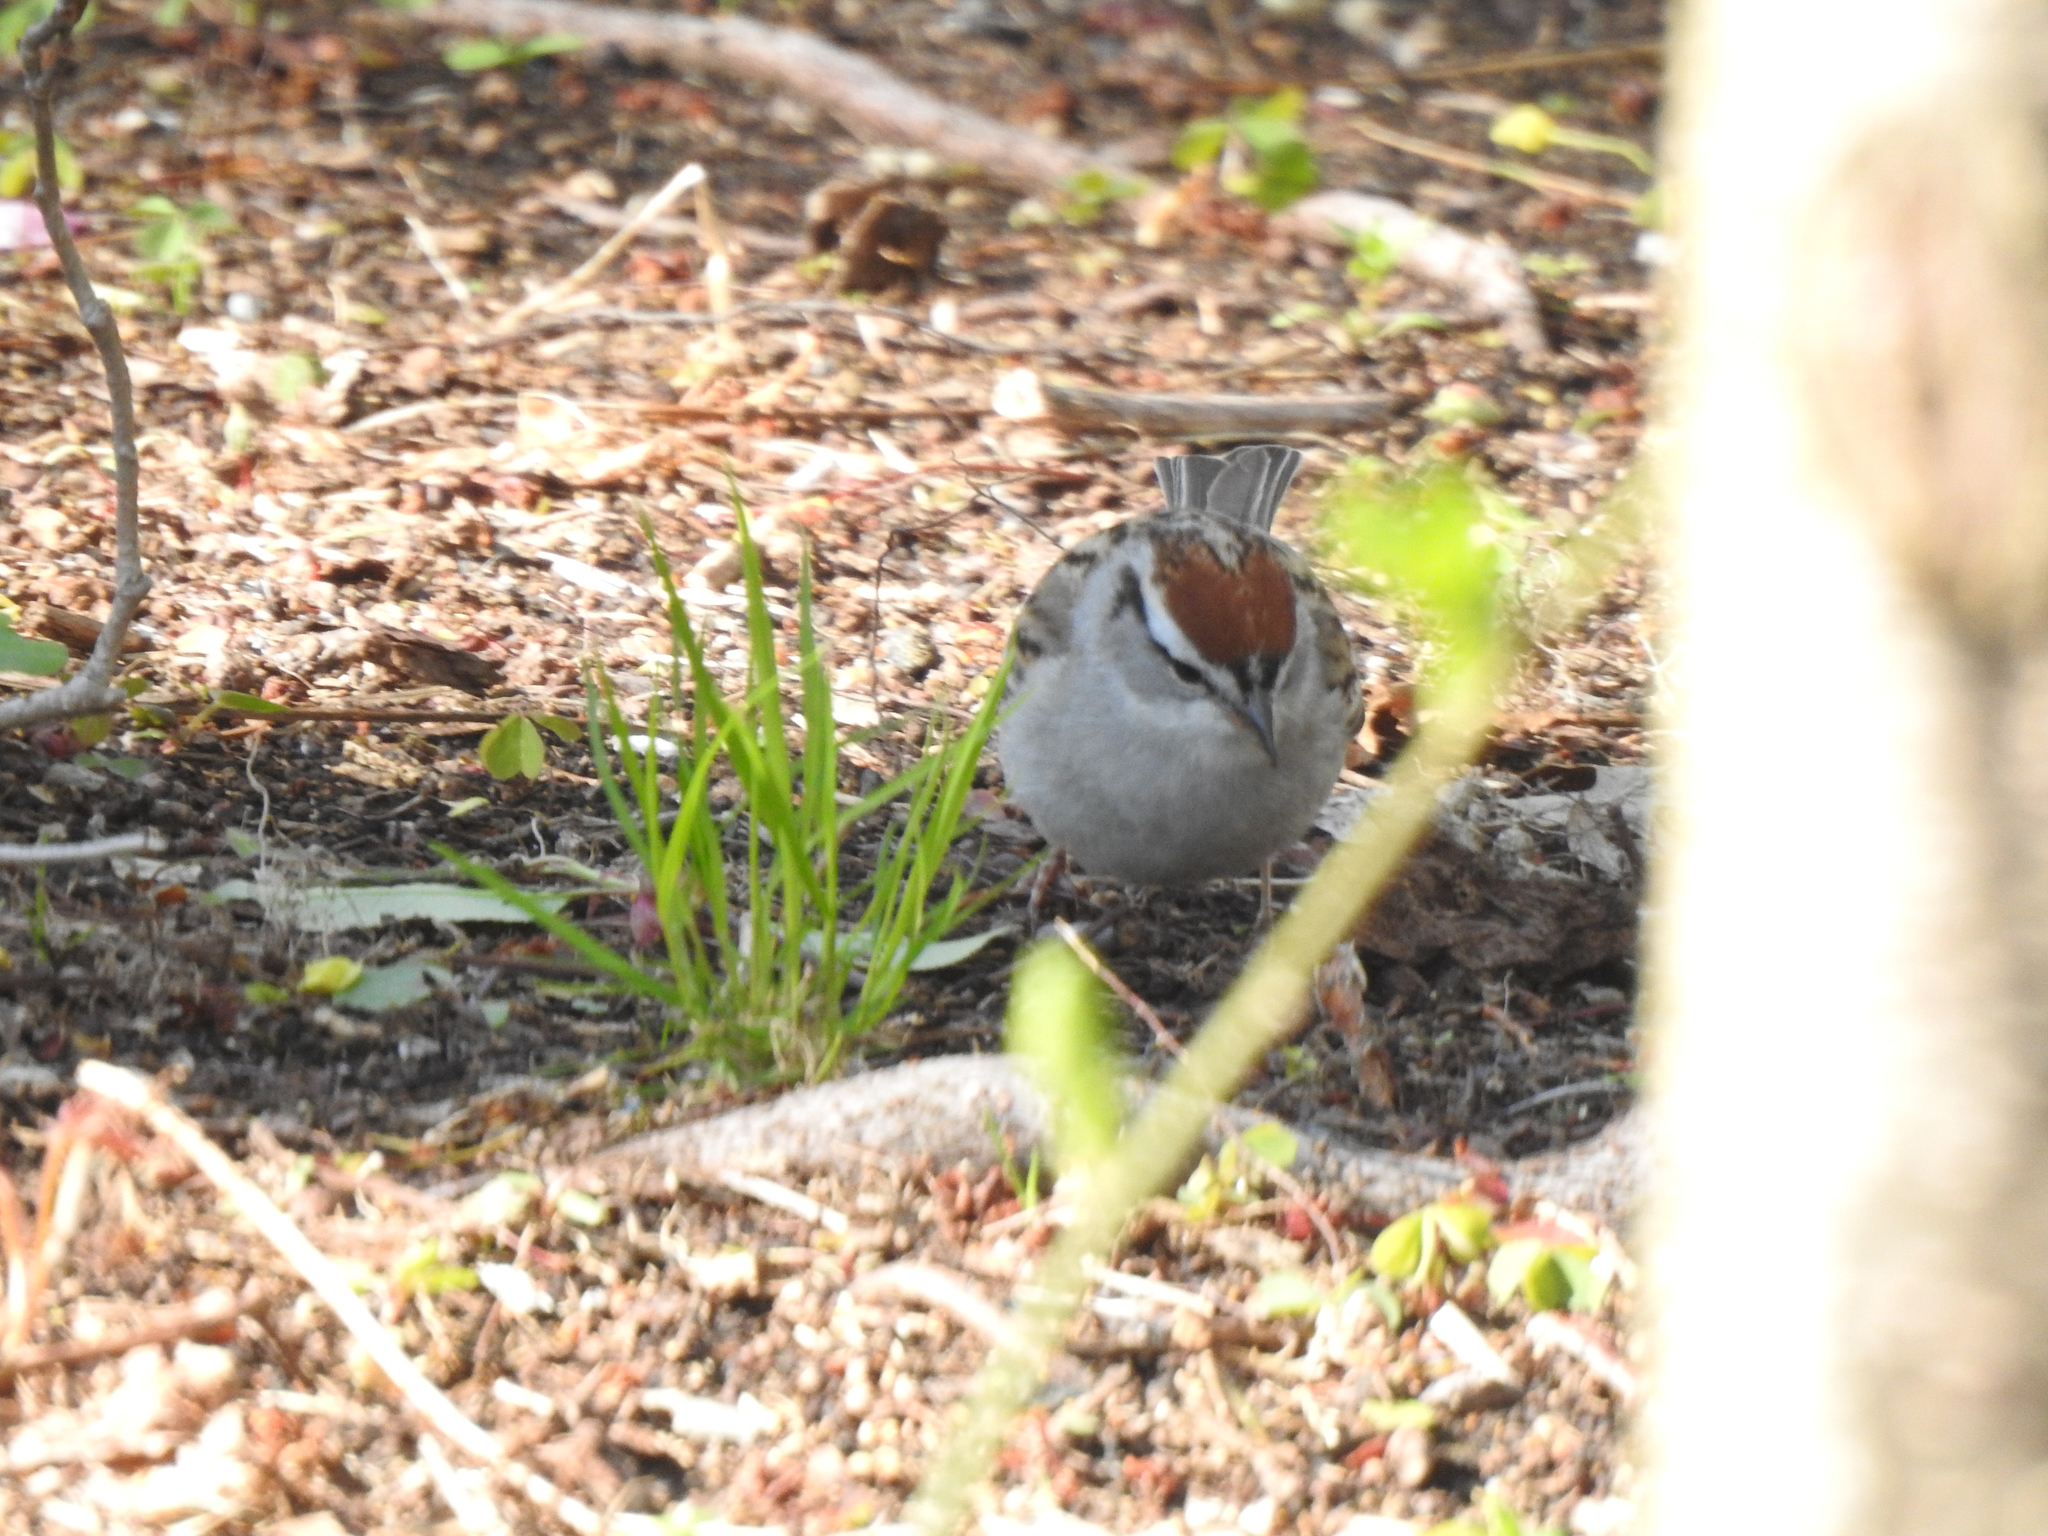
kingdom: Animalia
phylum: Chordata
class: Aves
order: Passeriformes
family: Passerellidae
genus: Spizella
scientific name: Spizella passerina
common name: Chipping sparrow
